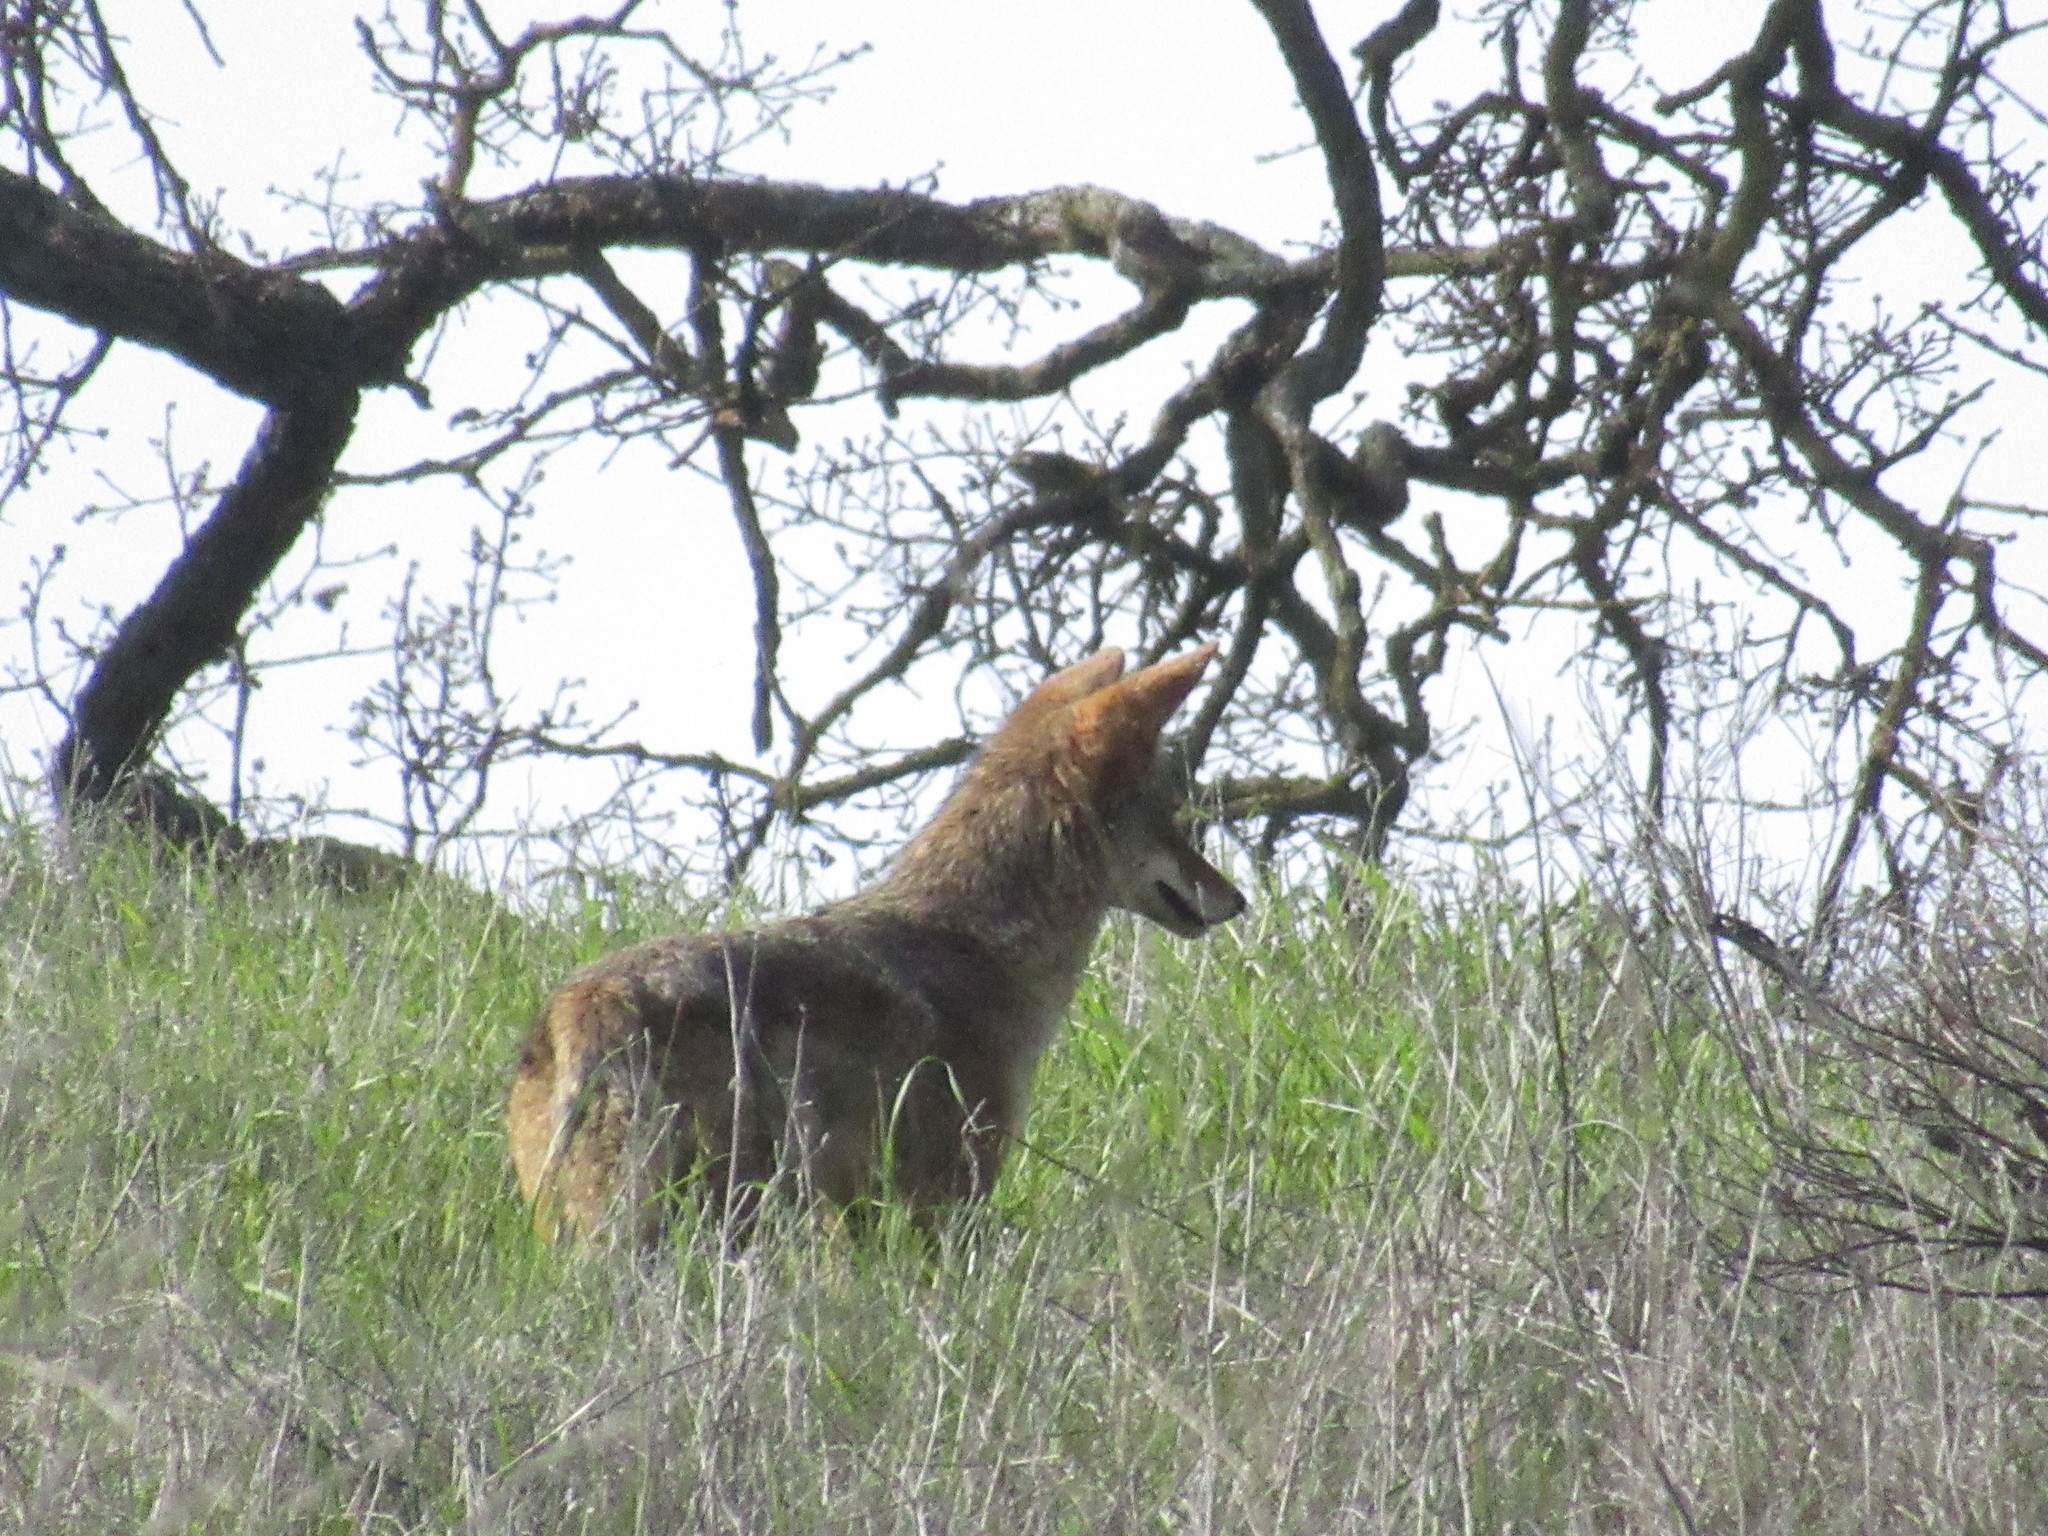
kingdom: Animalia
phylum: Chordata
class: Mammalia
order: Carnivora
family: Canidae
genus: Canis
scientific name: Canis latrans
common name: Coyote
